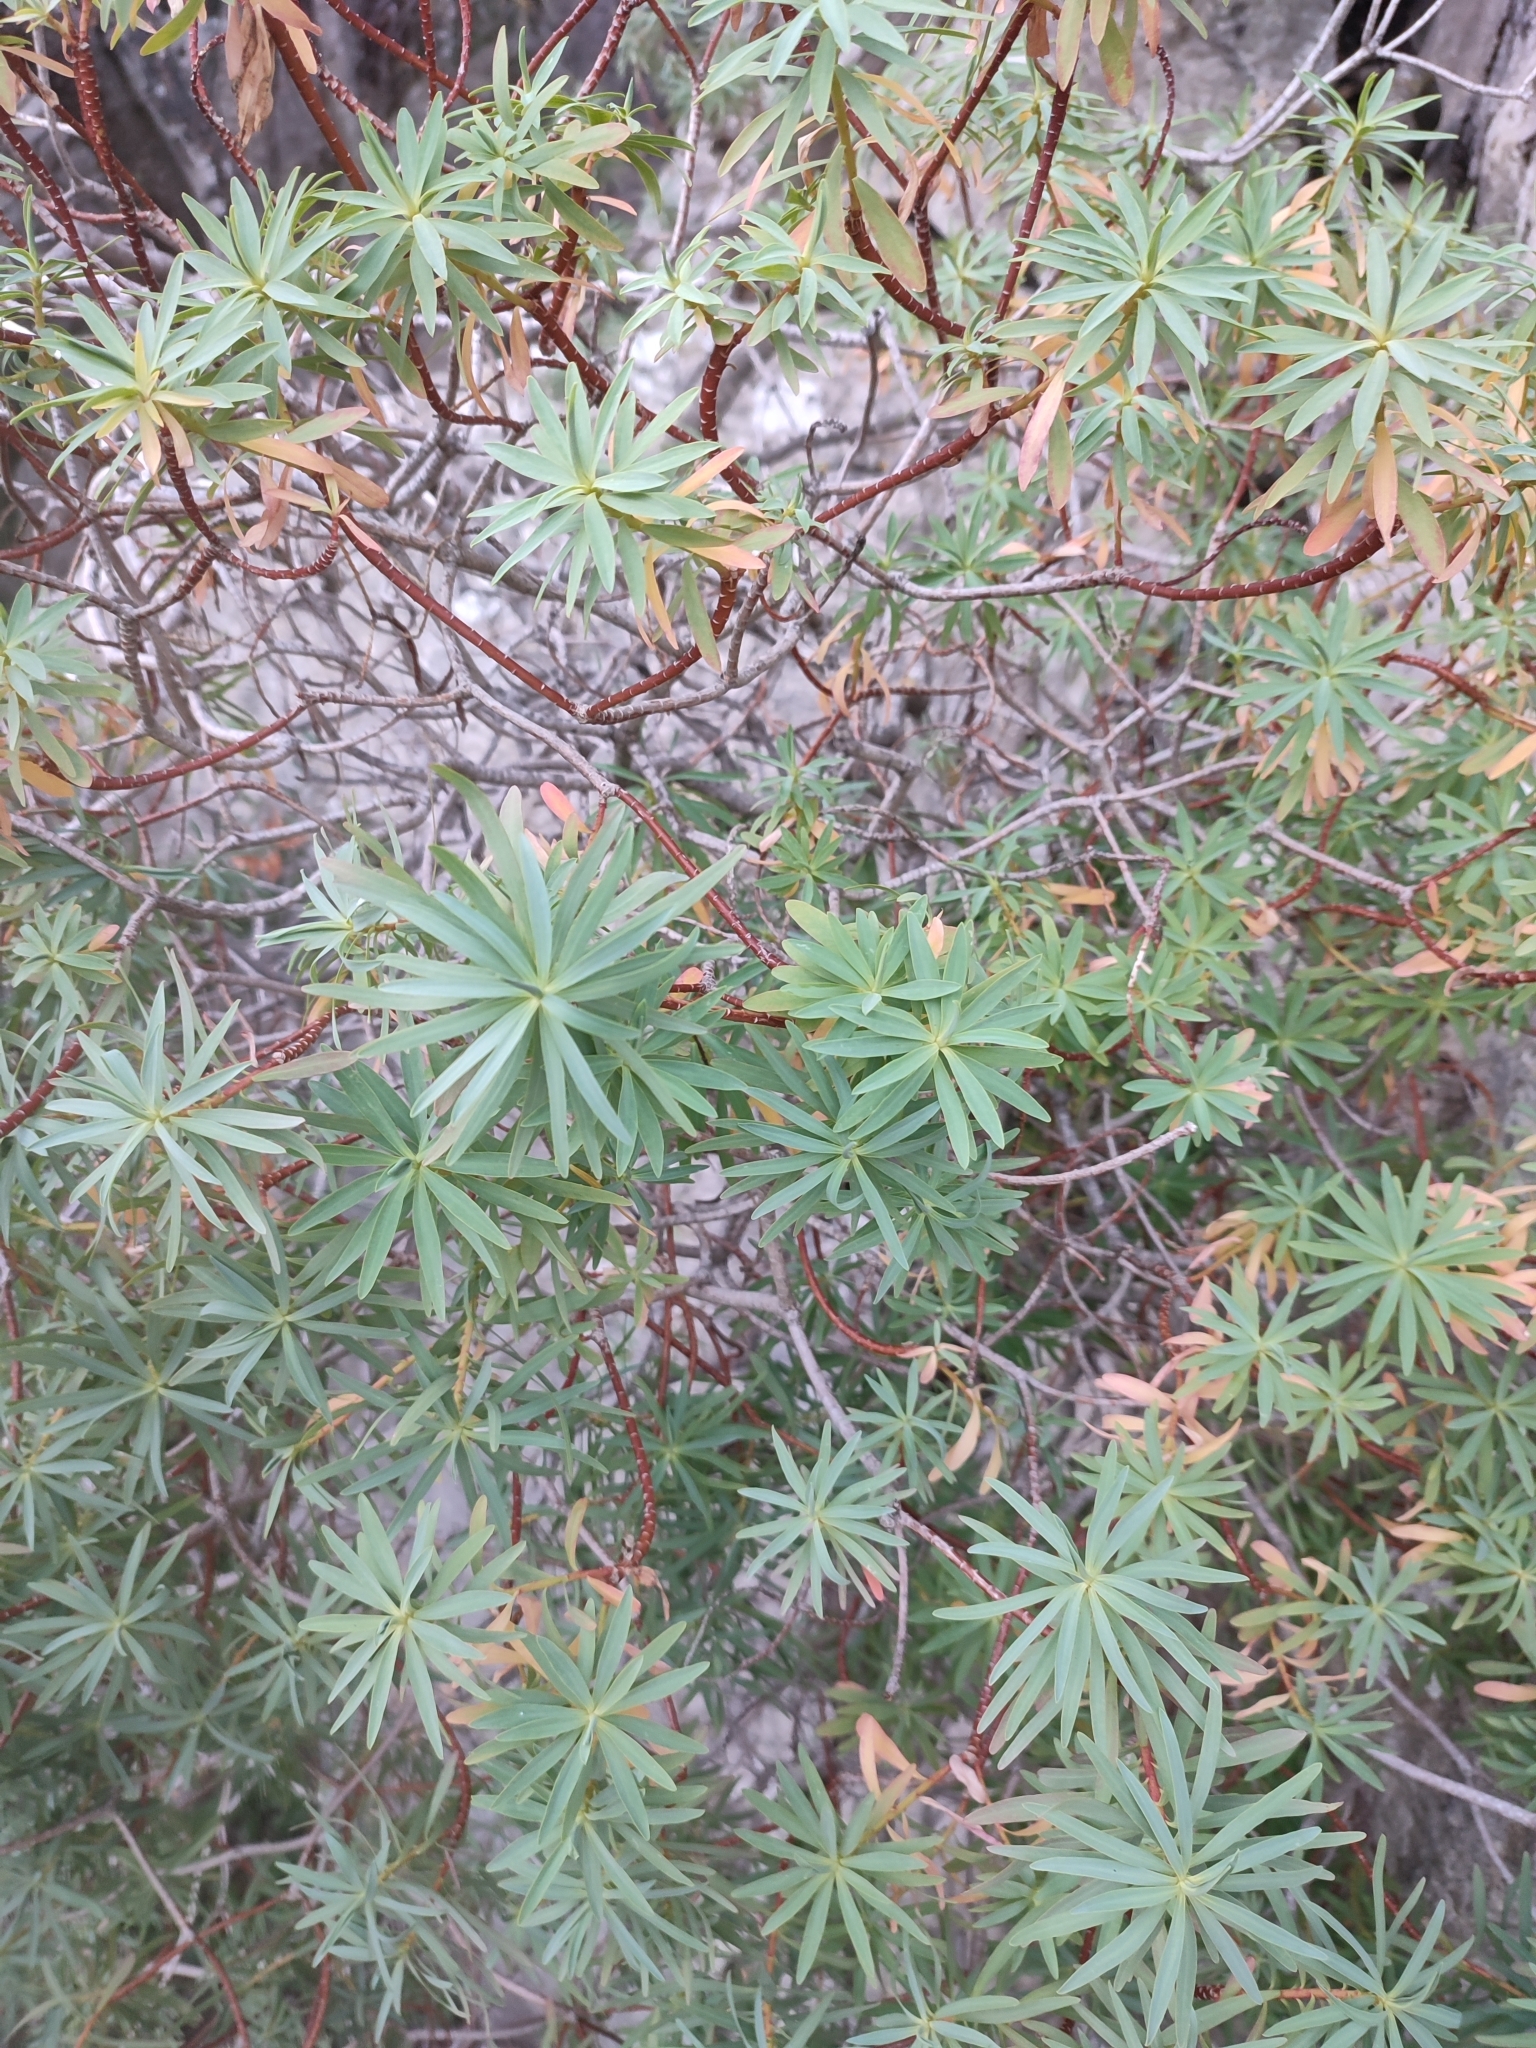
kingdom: Plantae
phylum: Tracheophyta
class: Magnoliopsida
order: Malpighiales
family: Euphorbiaceae
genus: Euphorbia
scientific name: Euphorbia dendroides
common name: Tree spurge
